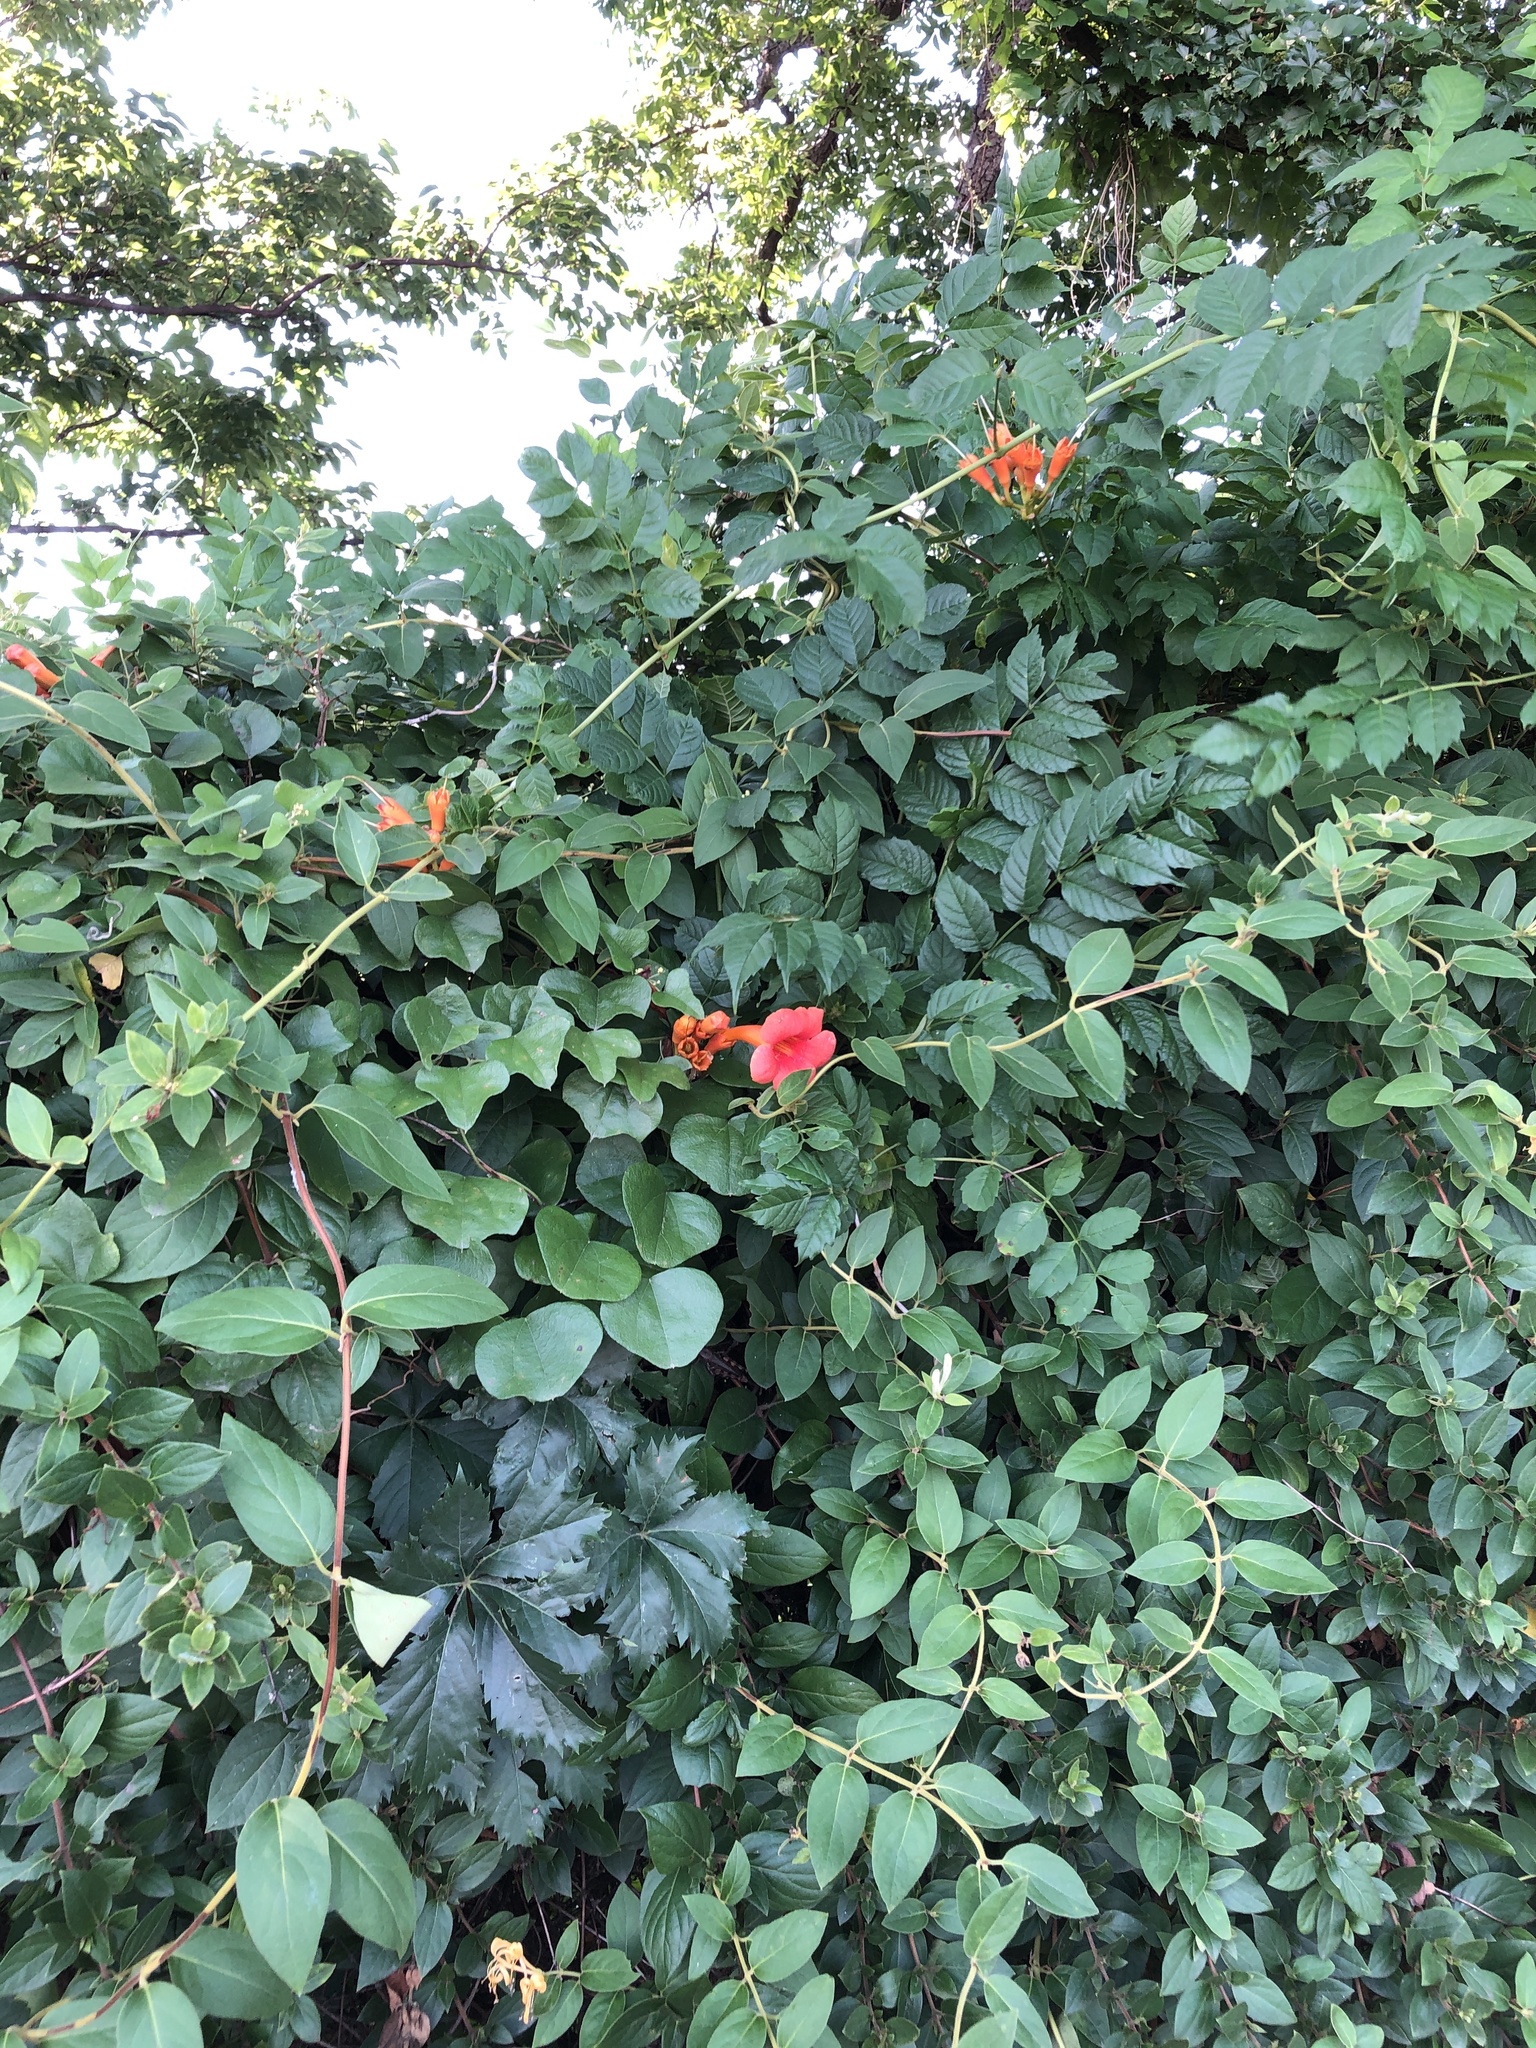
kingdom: Plantae
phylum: Tracheophyta
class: Magnoliopsida
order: Lamiales
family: Bignoniaceae
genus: Campsis
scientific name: Campsis radicans
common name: Trumpet-creeper
